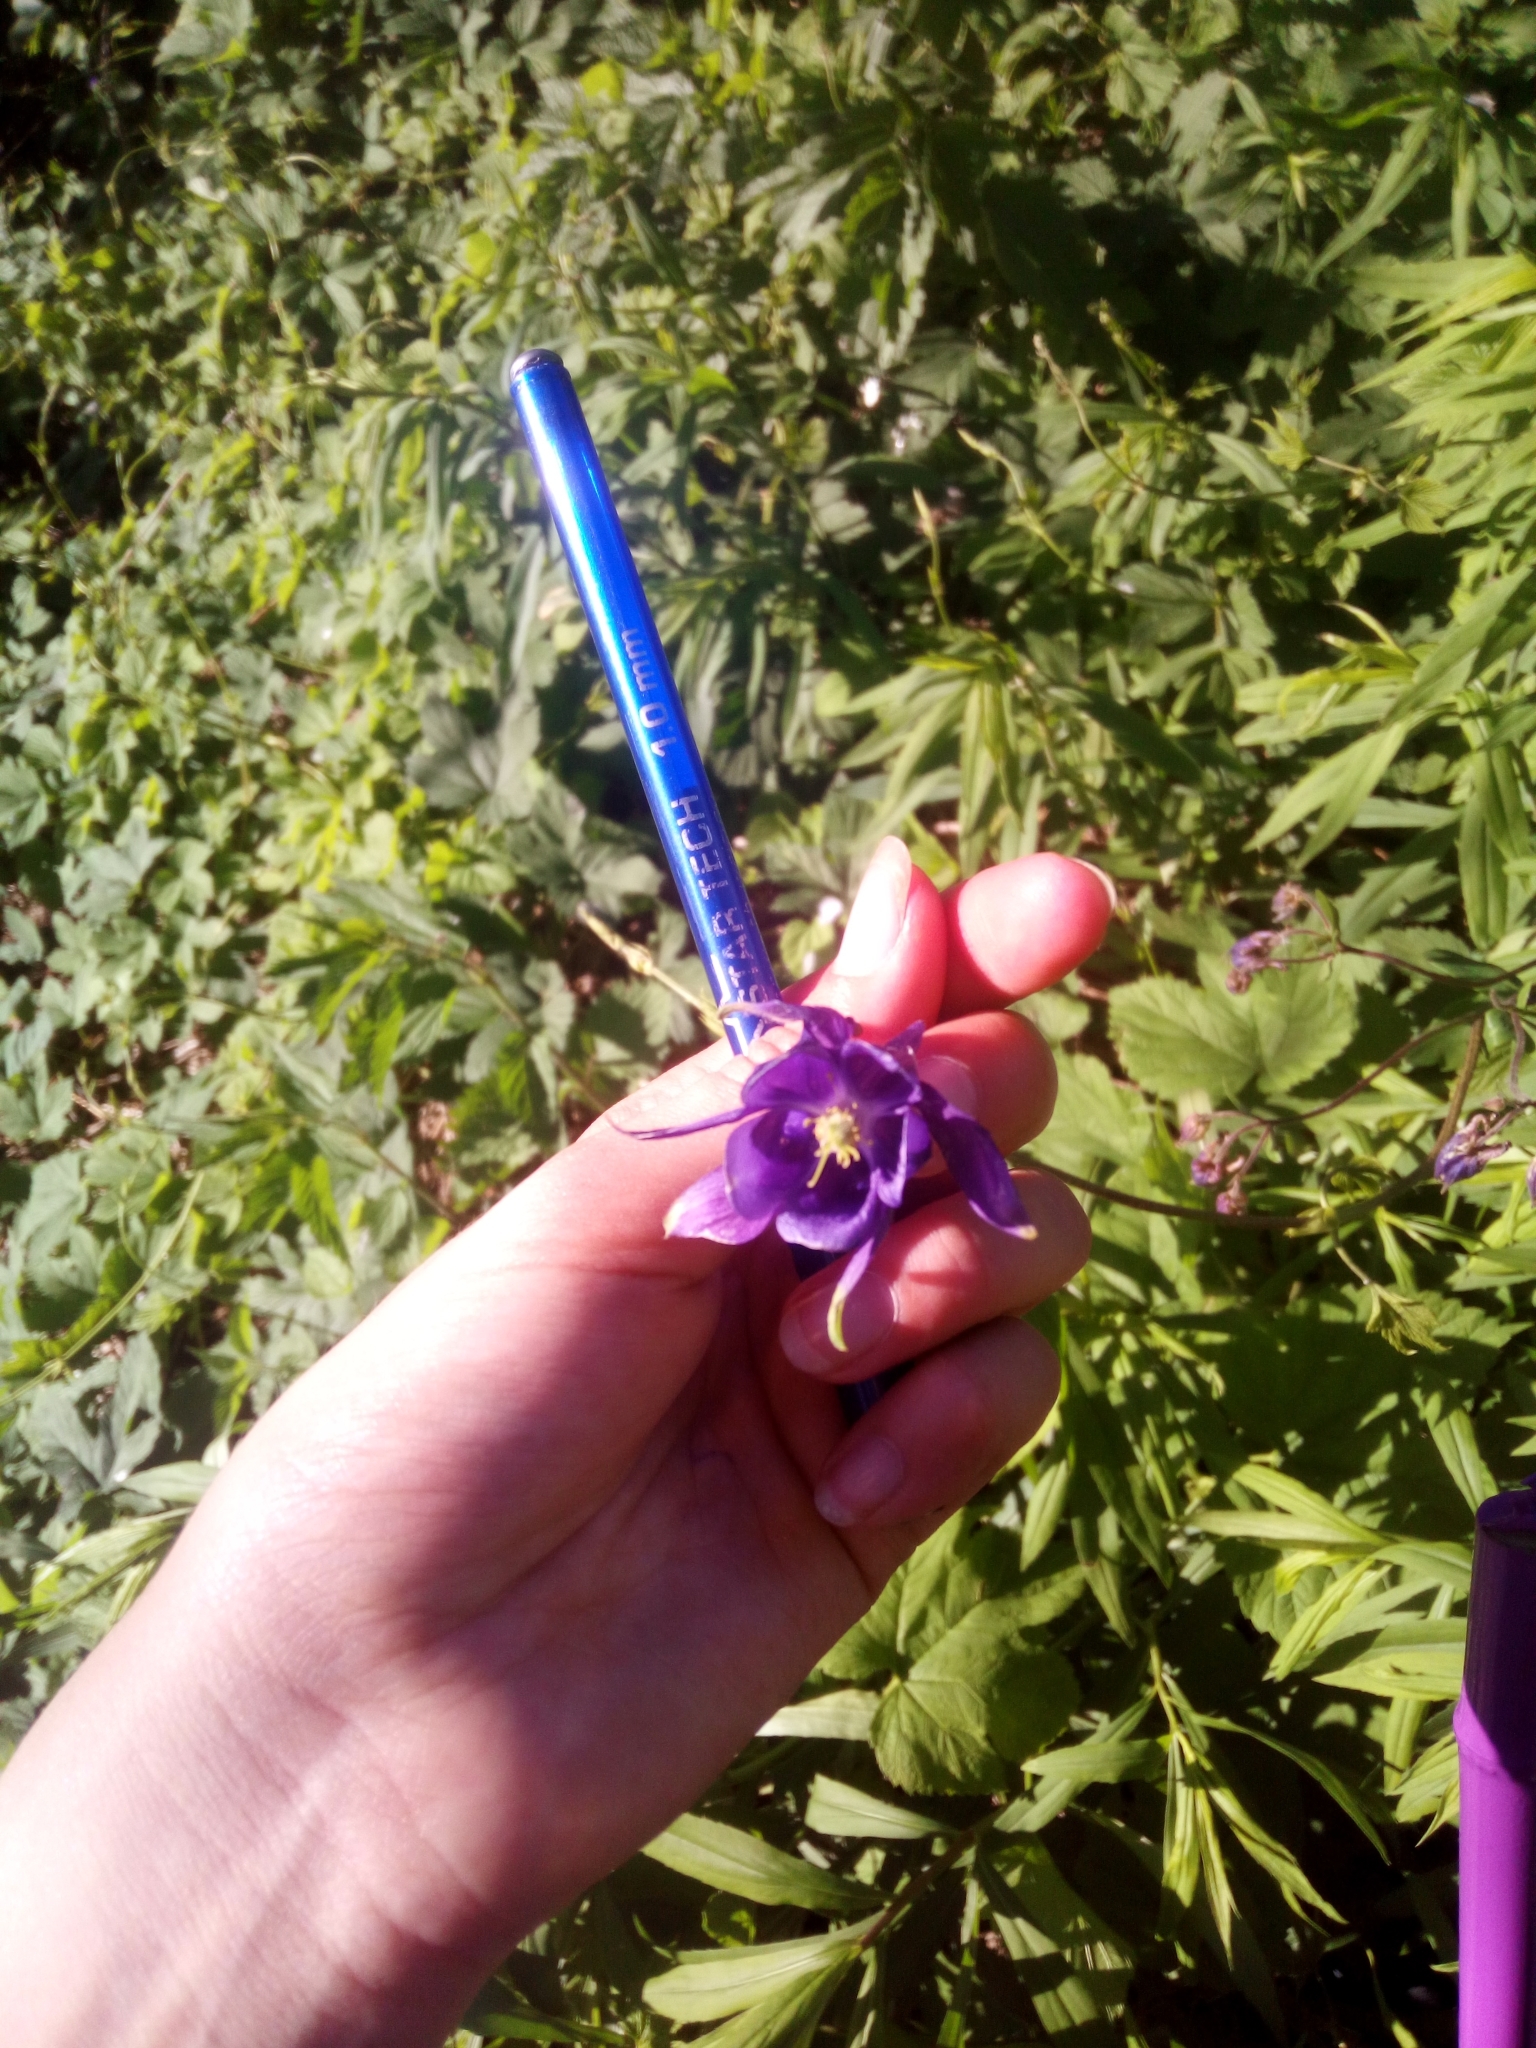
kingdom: Plantae
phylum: Tracheophyta
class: Magnoliopsida
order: Ranunculales
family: Ranunculaceae
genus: Aquilegia
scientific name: Aquilegia vulgaris
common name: Columbine
